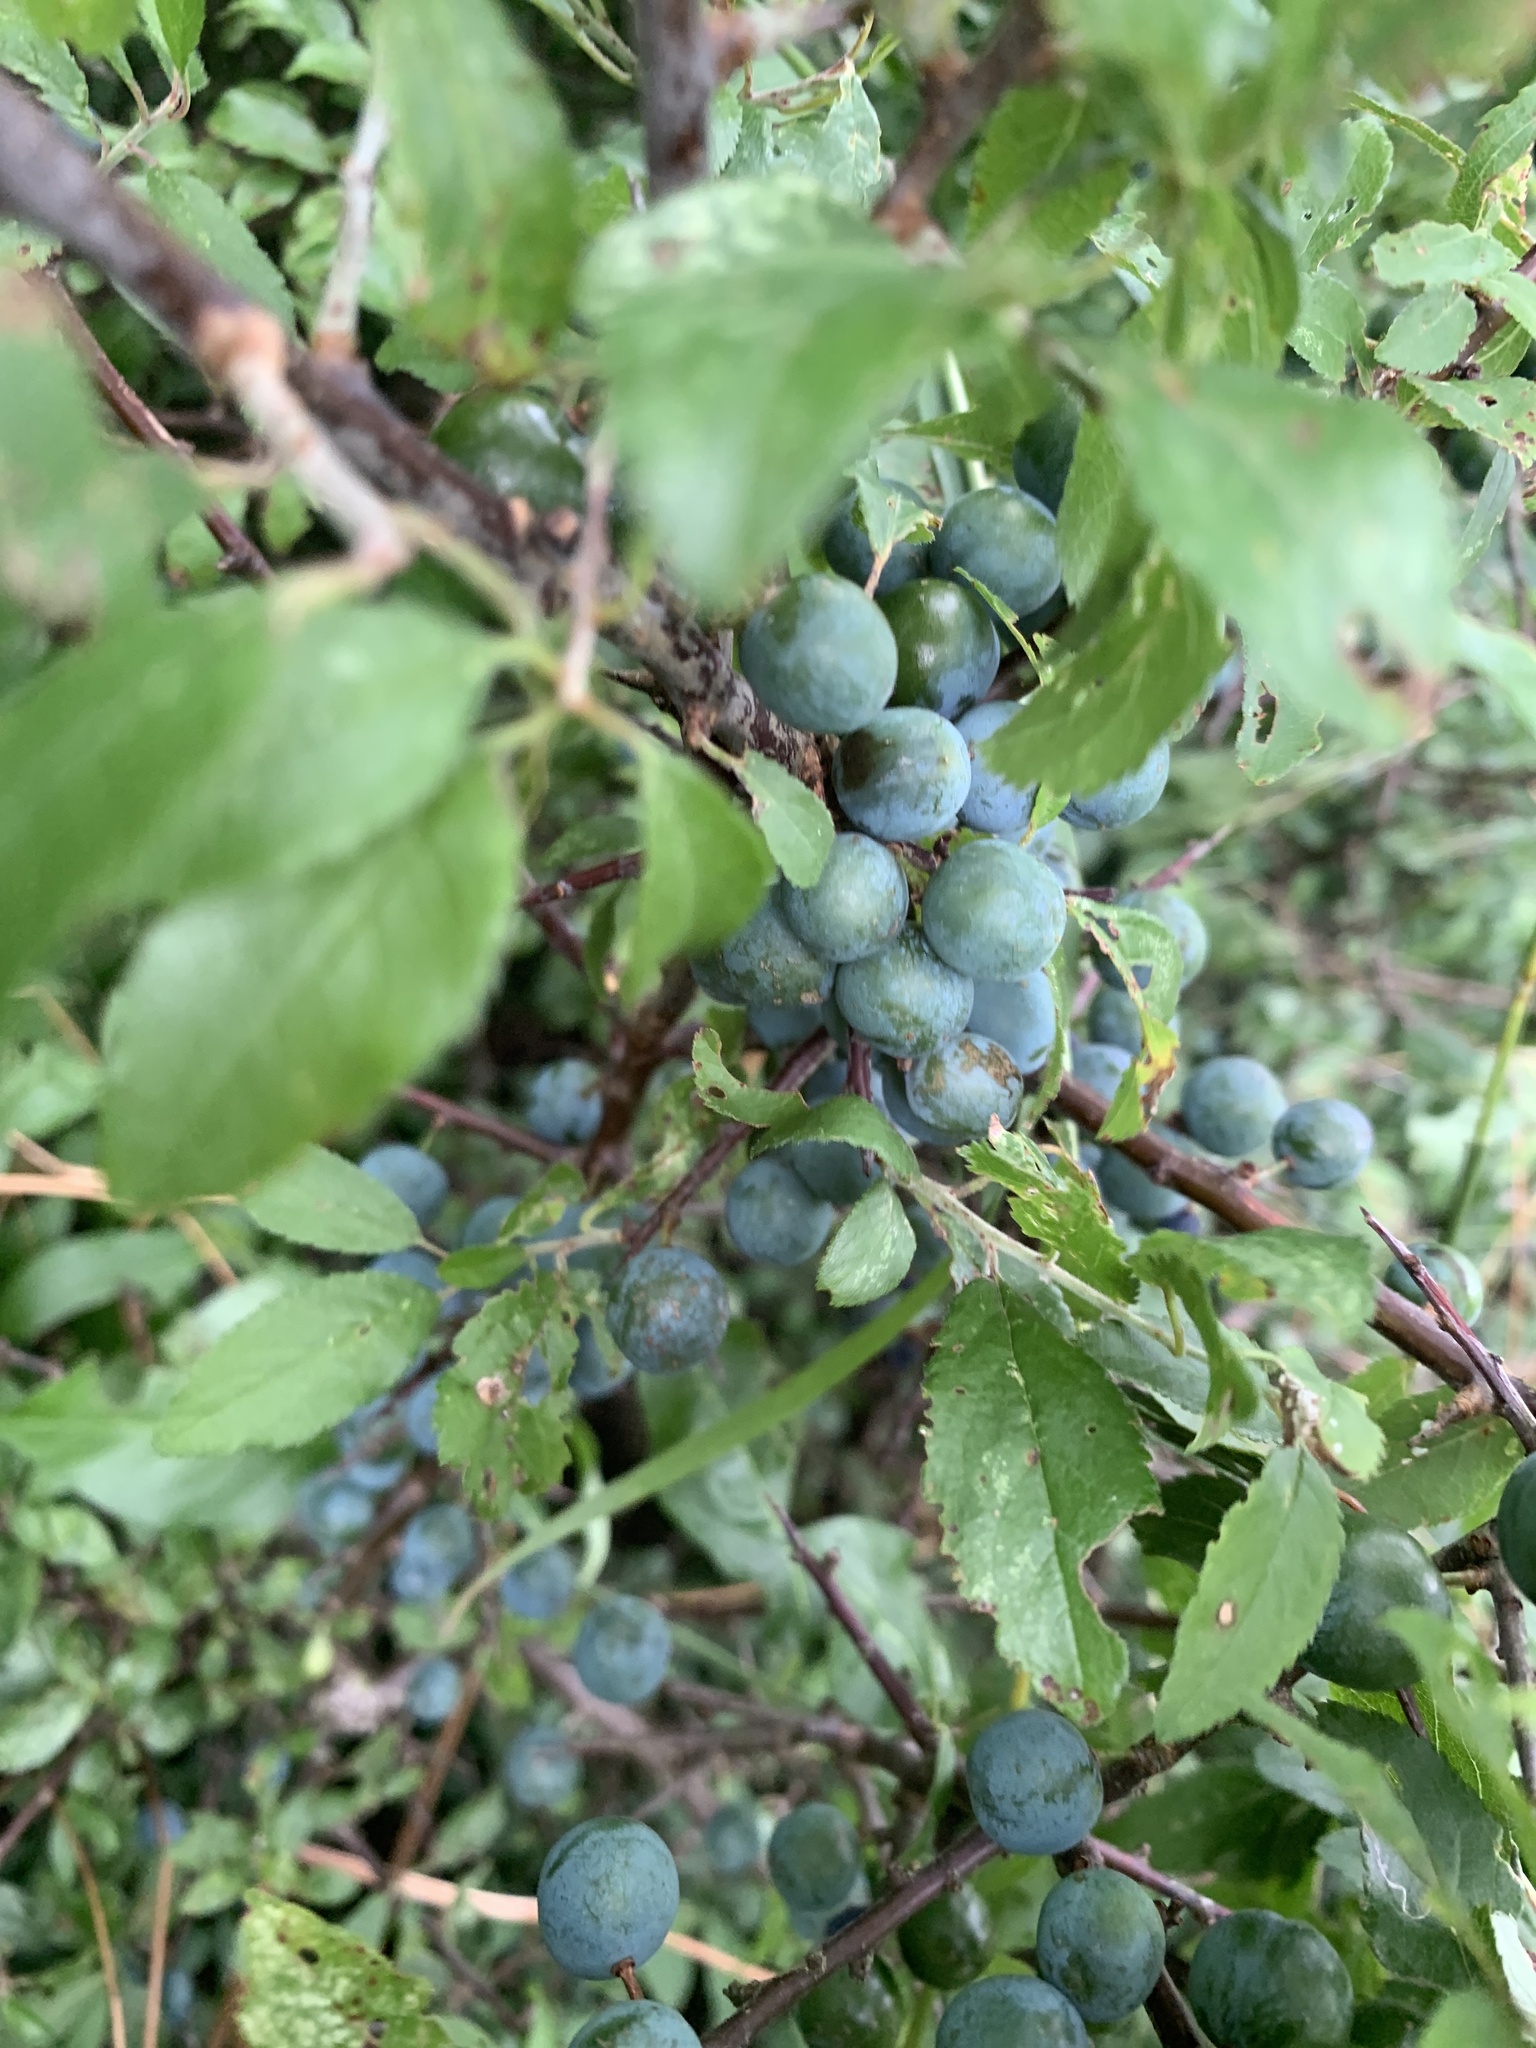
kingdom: Plantae
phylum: Tracheophyta
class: Magnoliopsida
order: Rosales
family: Rosaceae
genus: Prunus
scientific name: Prunus spinosa
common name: Blackthorn
